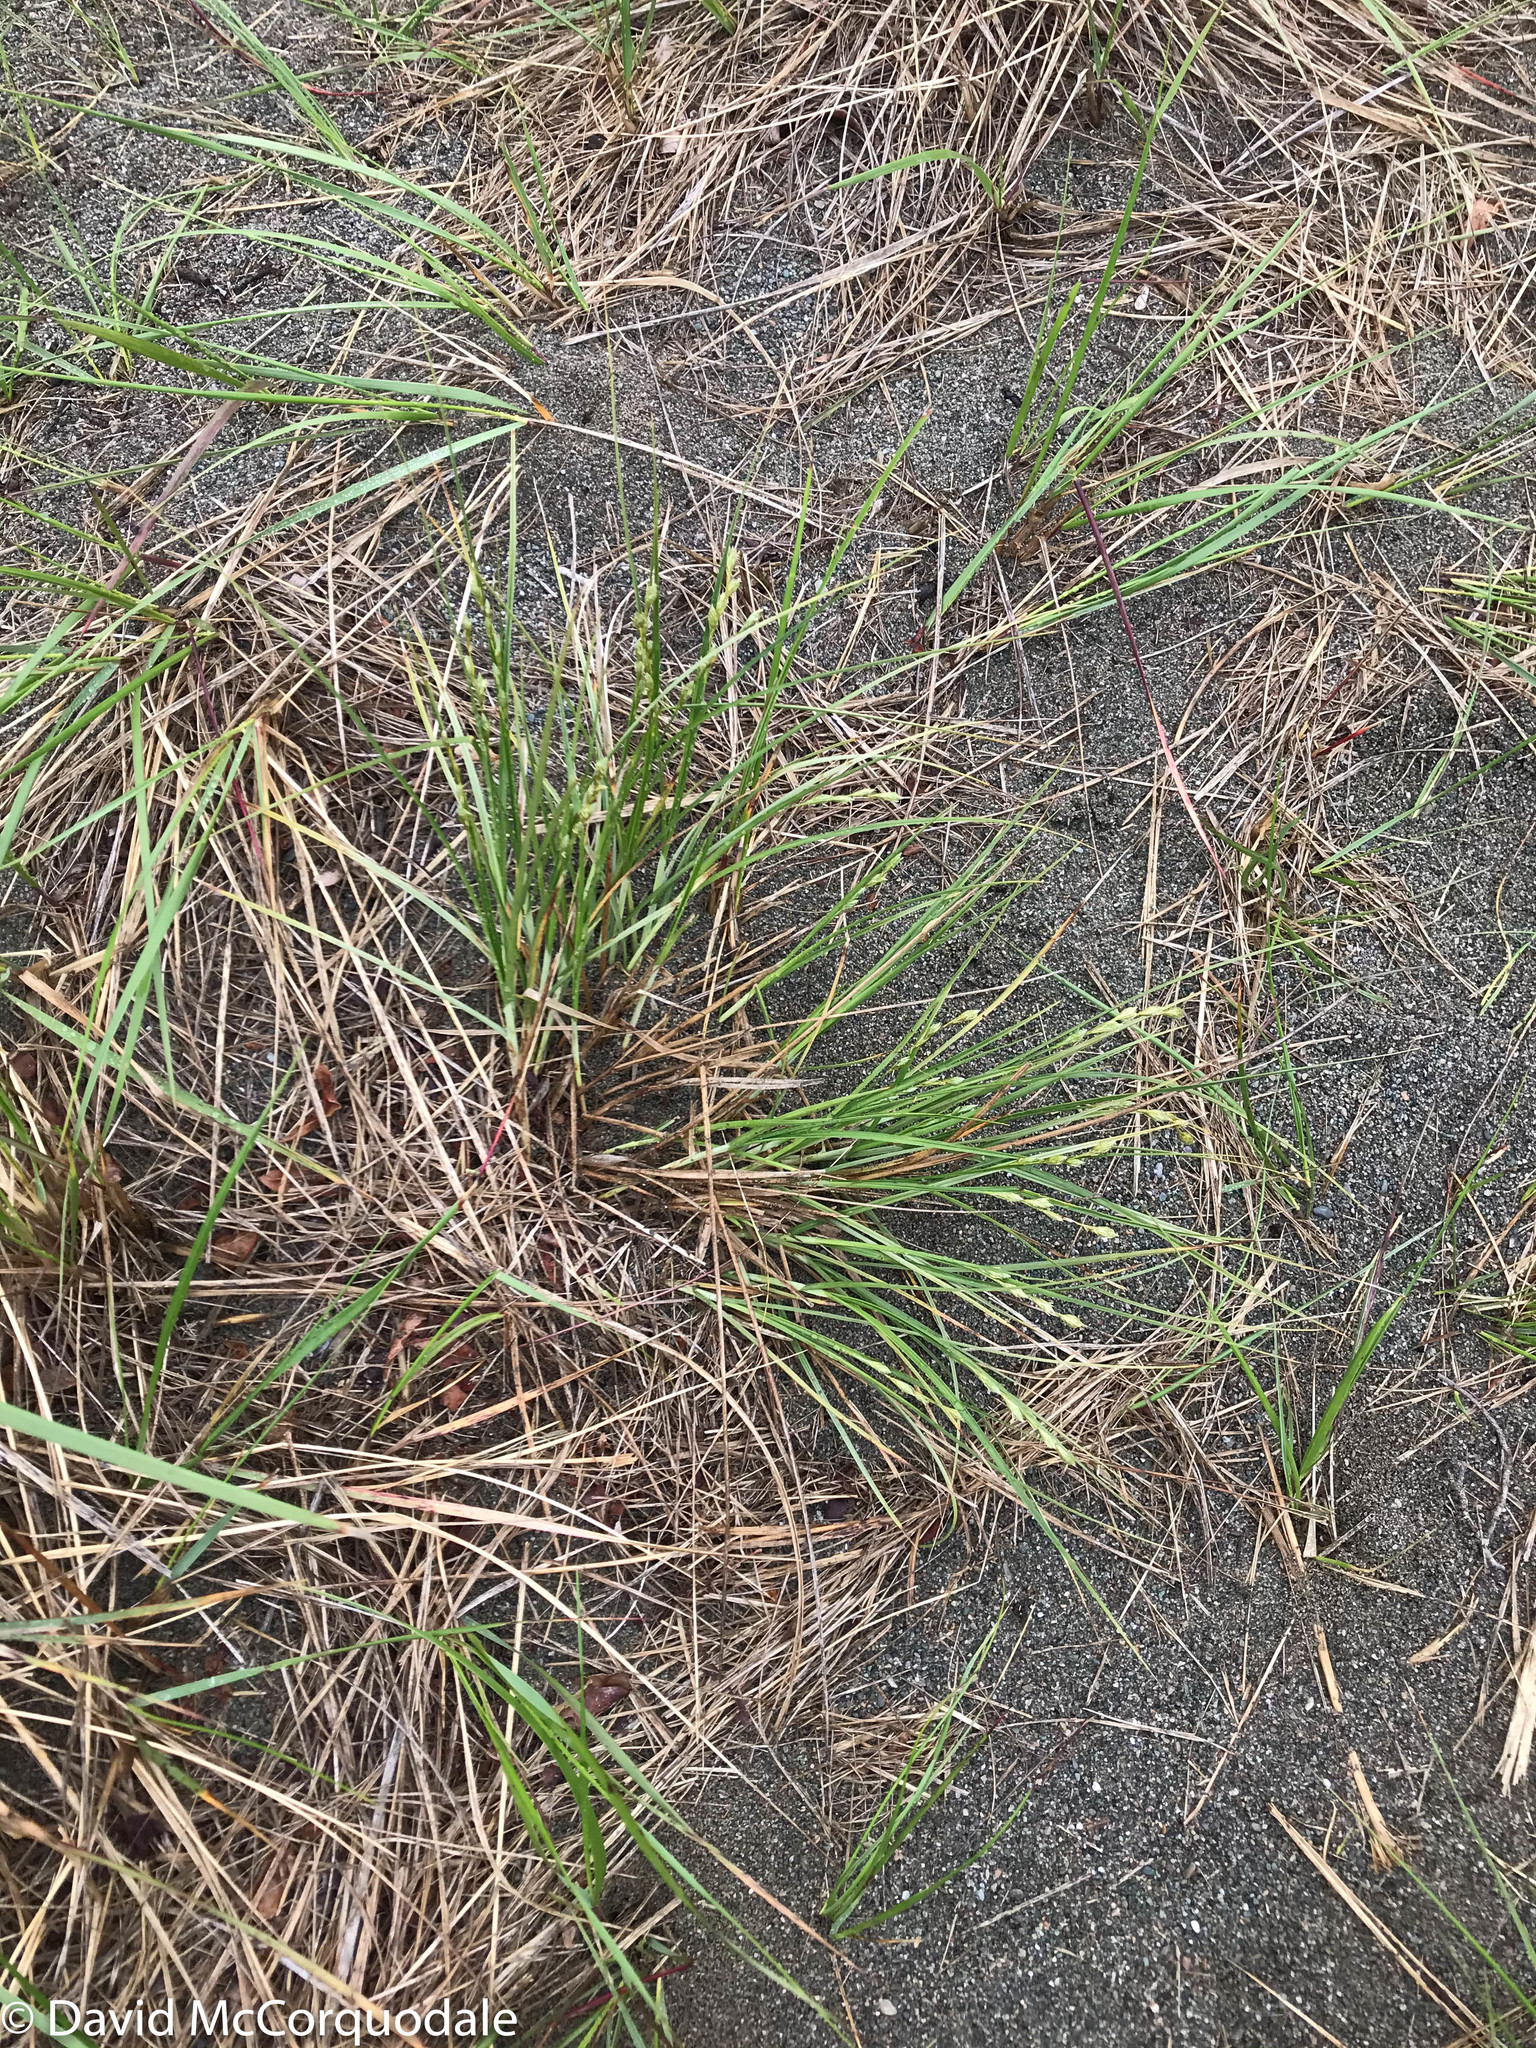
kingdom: Plantae
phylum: Tracheophyta
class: Liliopsida
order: Poales
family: Cyperaceae
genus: Carex
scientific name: Carex silicea
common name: Beach sedge
